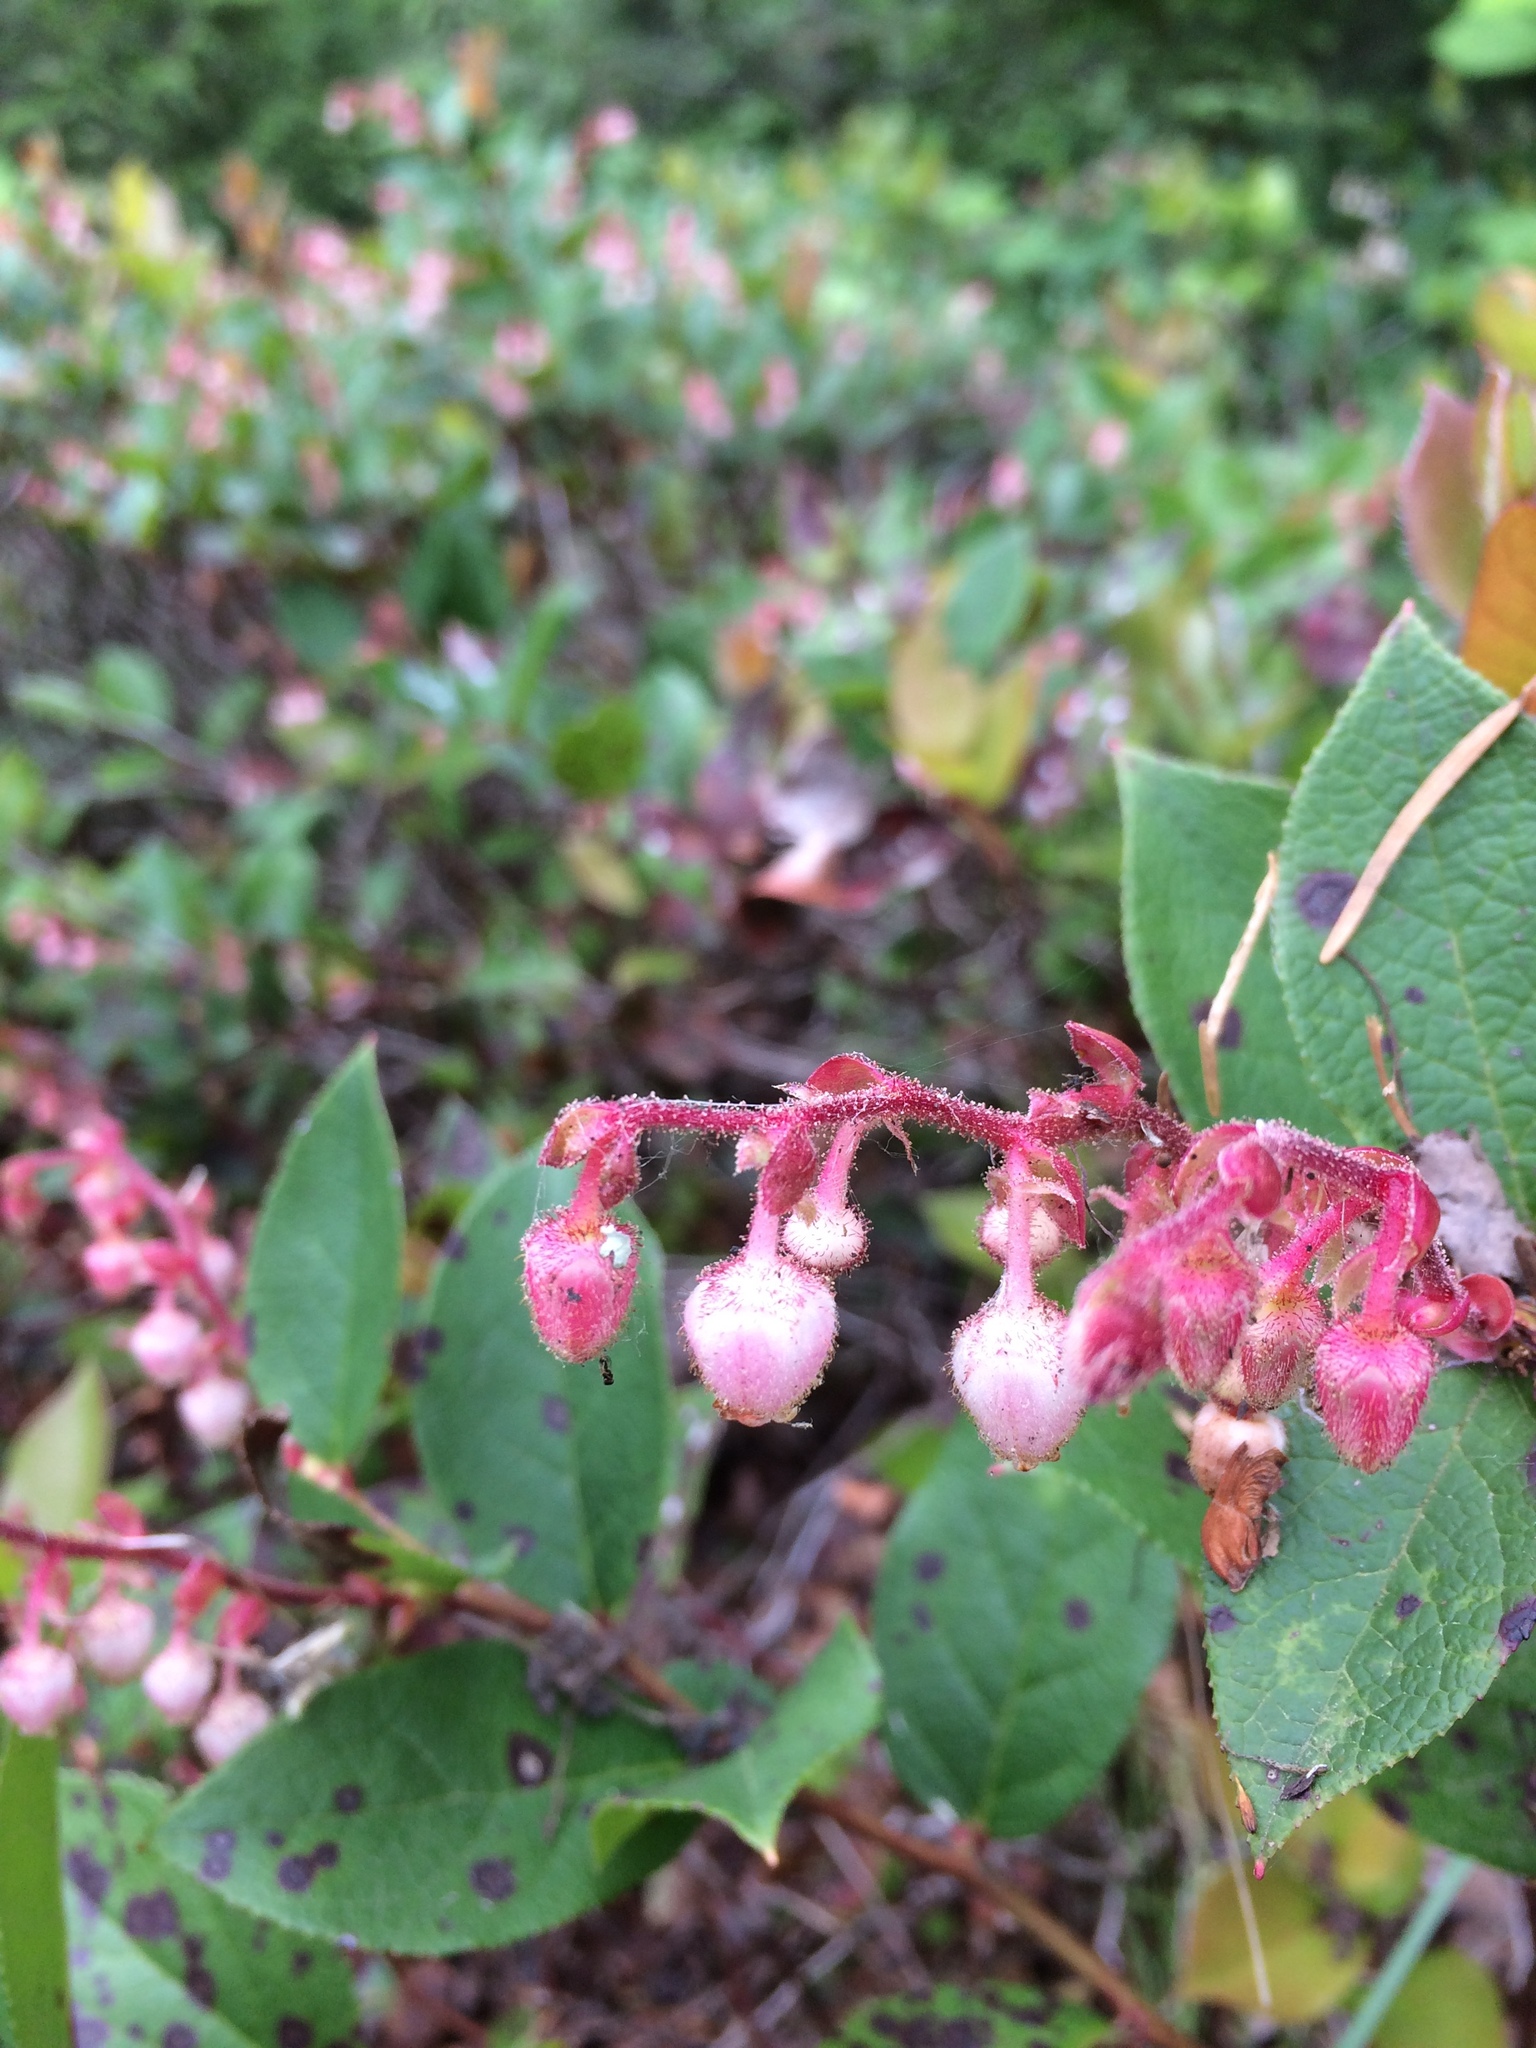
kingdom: Plantae
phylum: Tracheophyta
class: Magnoliopsida
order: Ericales
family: Ericaceae
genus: Gaultheria
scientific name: Gaultheria shallon
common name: Shallon
